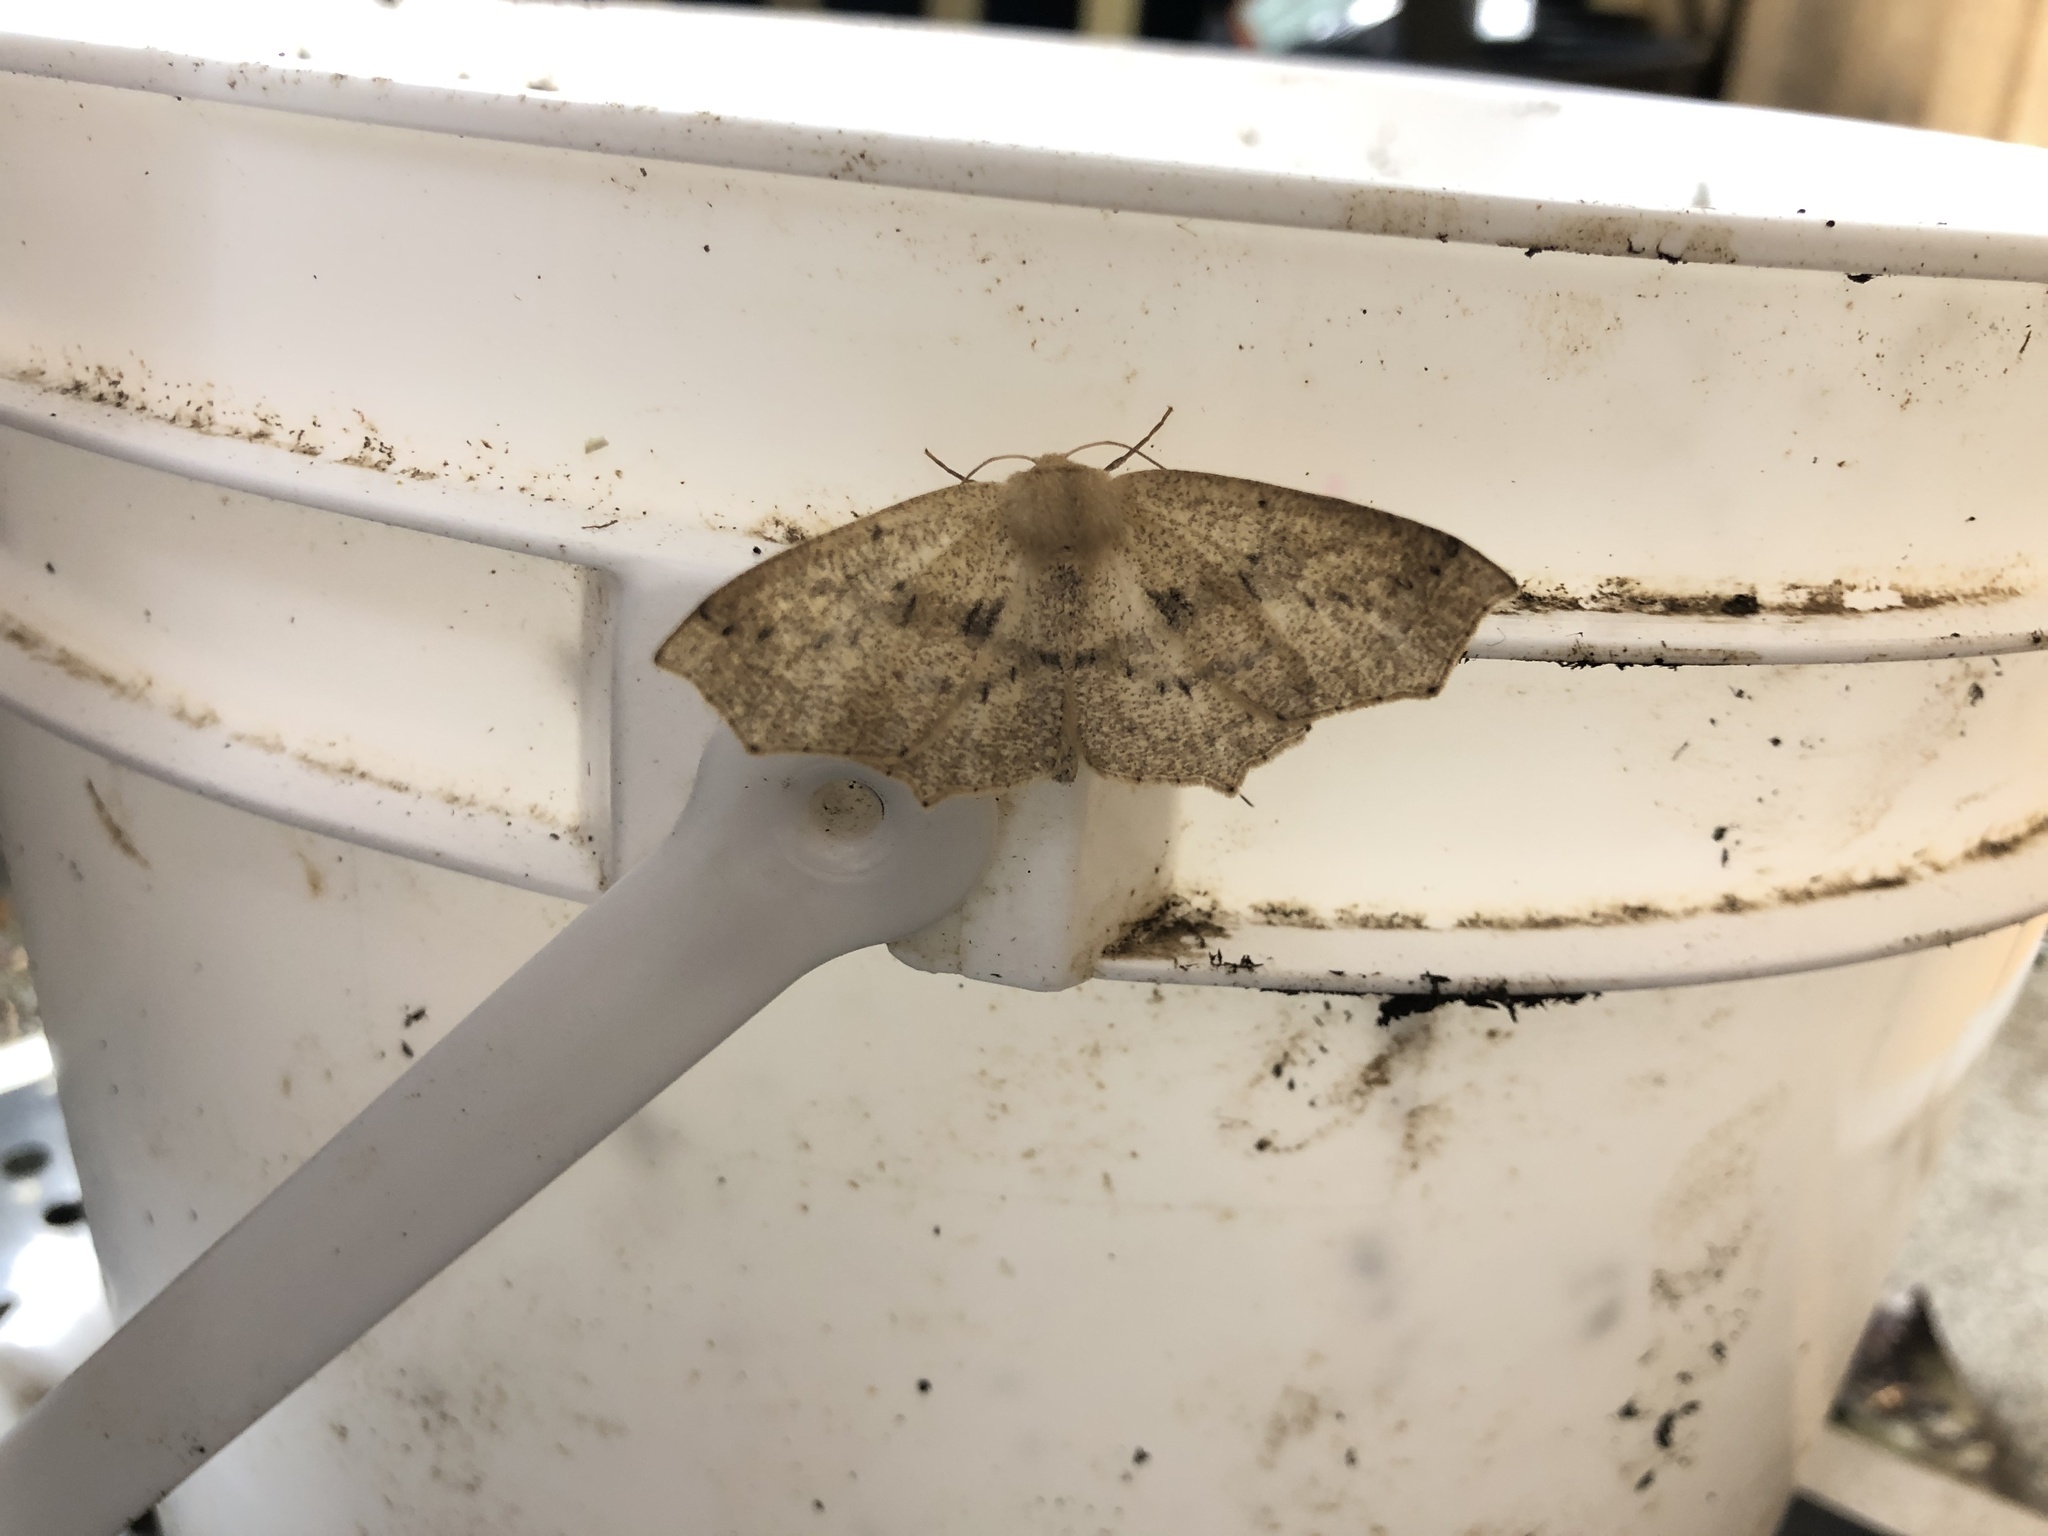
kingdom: Animalia
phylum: Arthropoda
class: Insecta
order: Lepidoptera
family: Geometridae
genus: Sabulodes
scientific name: Sabulodes aegrotata
